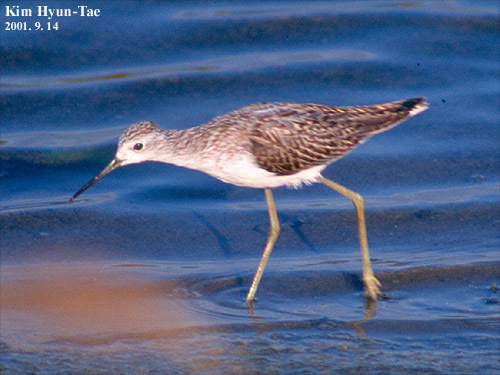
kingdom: Animalia
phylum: Chordata
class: Aves
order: Charadriiformes
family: Scolopacidae
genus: Tringa
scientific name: Tringa stagnatilis
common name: Marsh sandpiper
